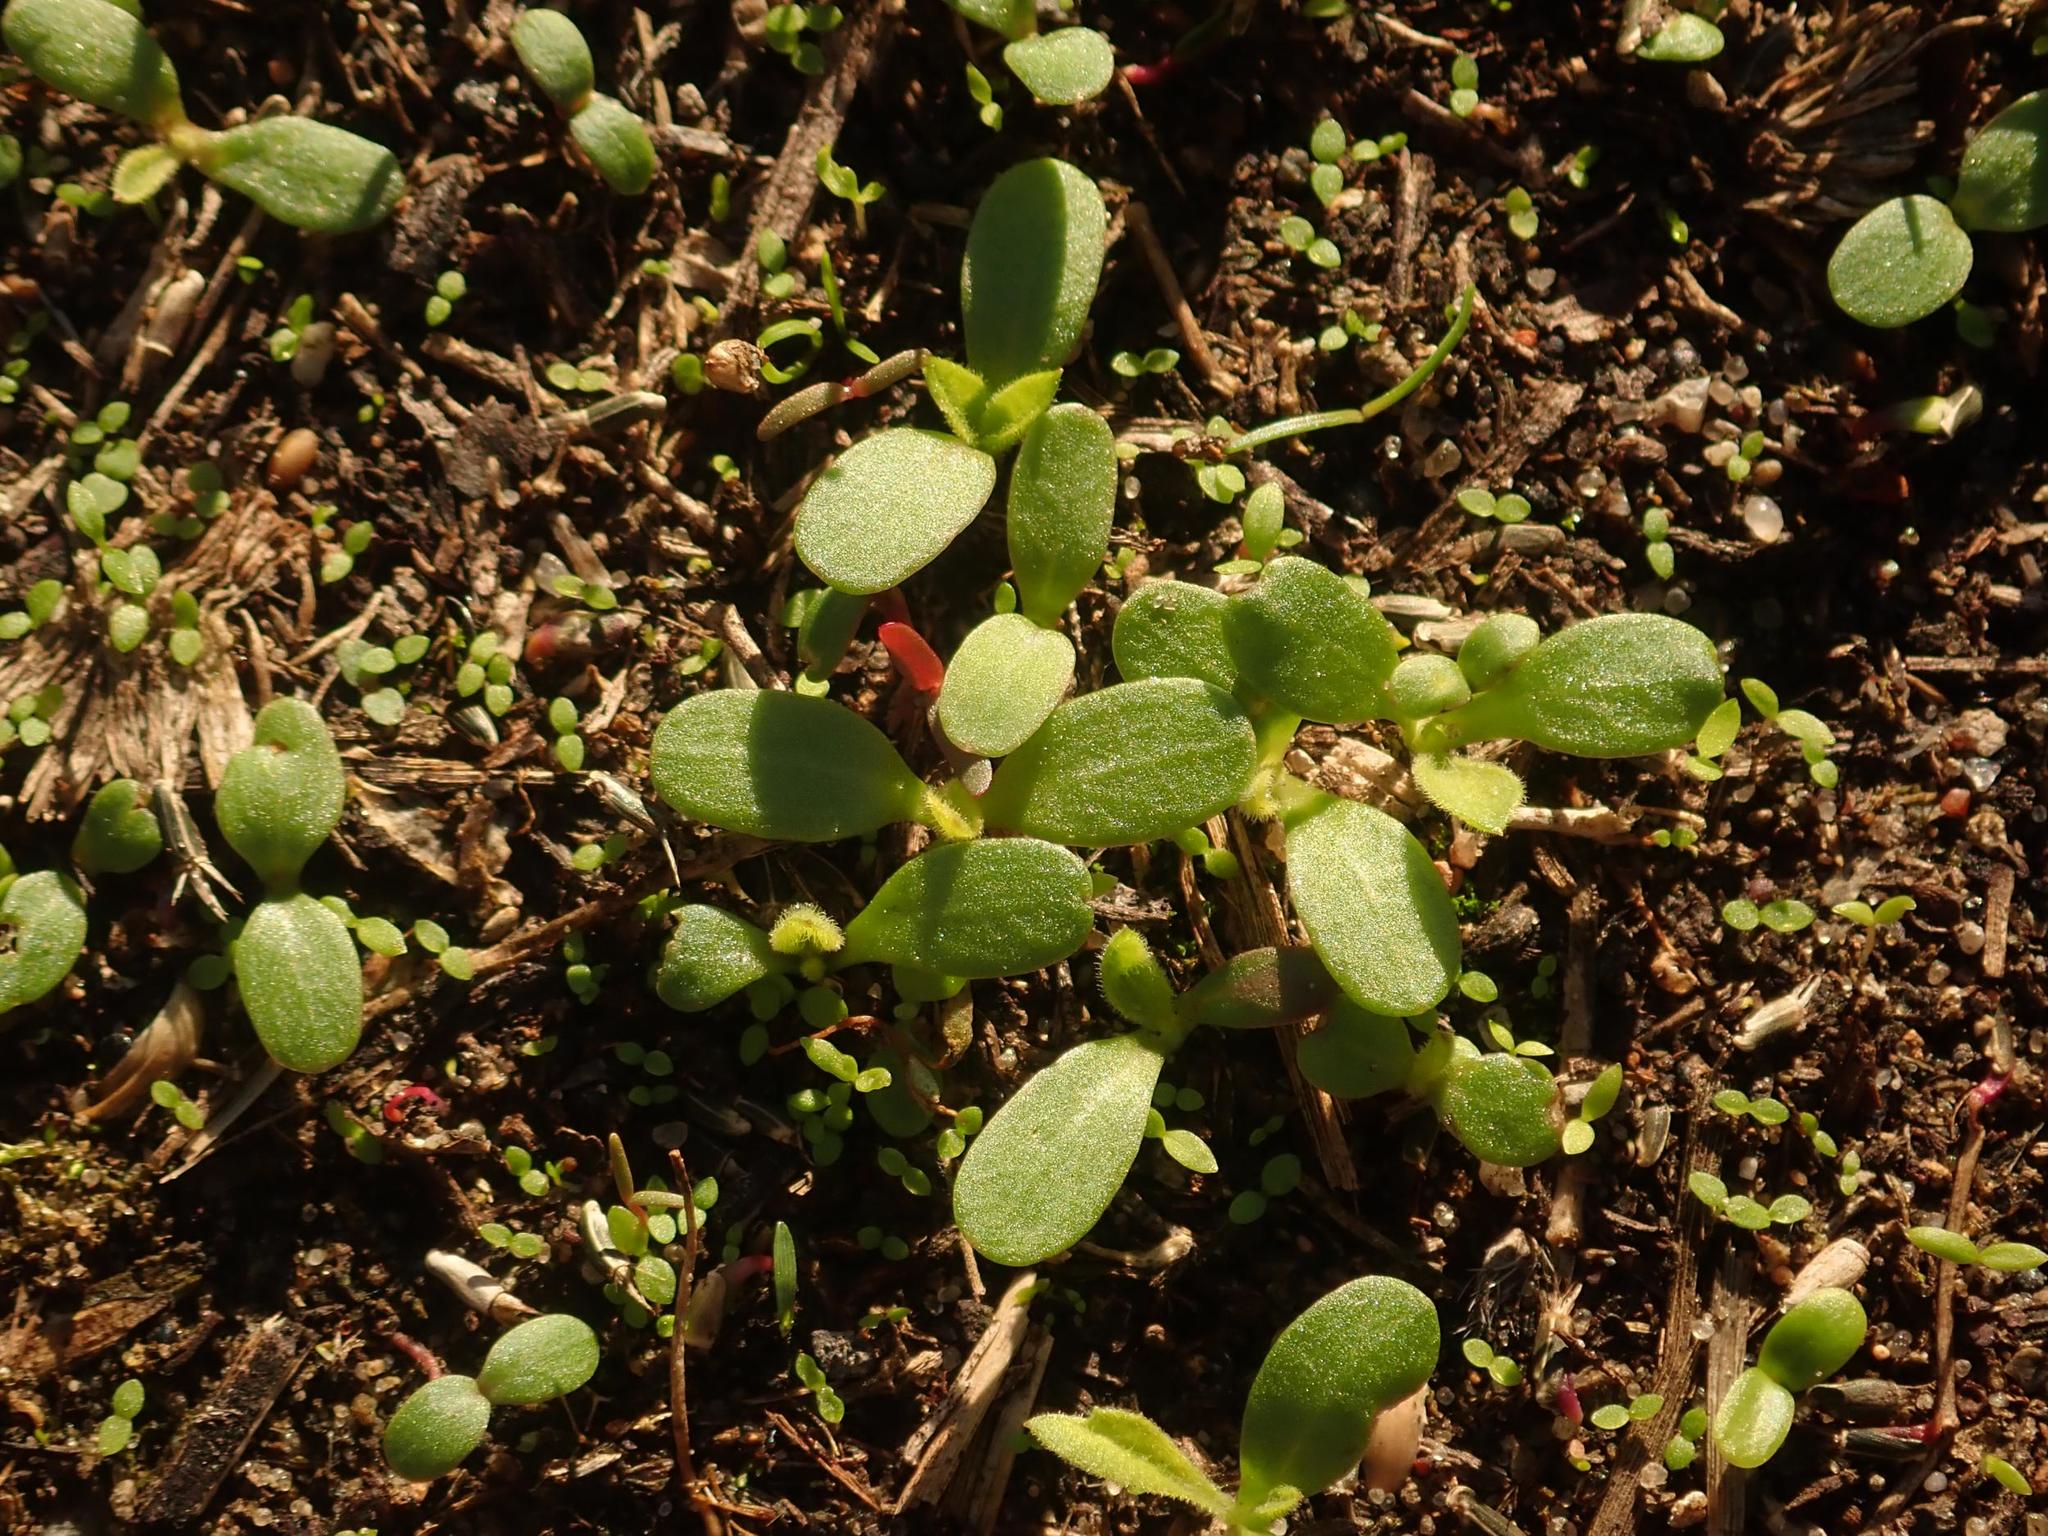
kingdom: Plantae
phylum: Tracheophyta
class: Magnoliopsida
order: Caryophyllales
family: Portulacaceae
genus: Portulaca
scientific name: Portulaca oleracea
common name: Common purslane
